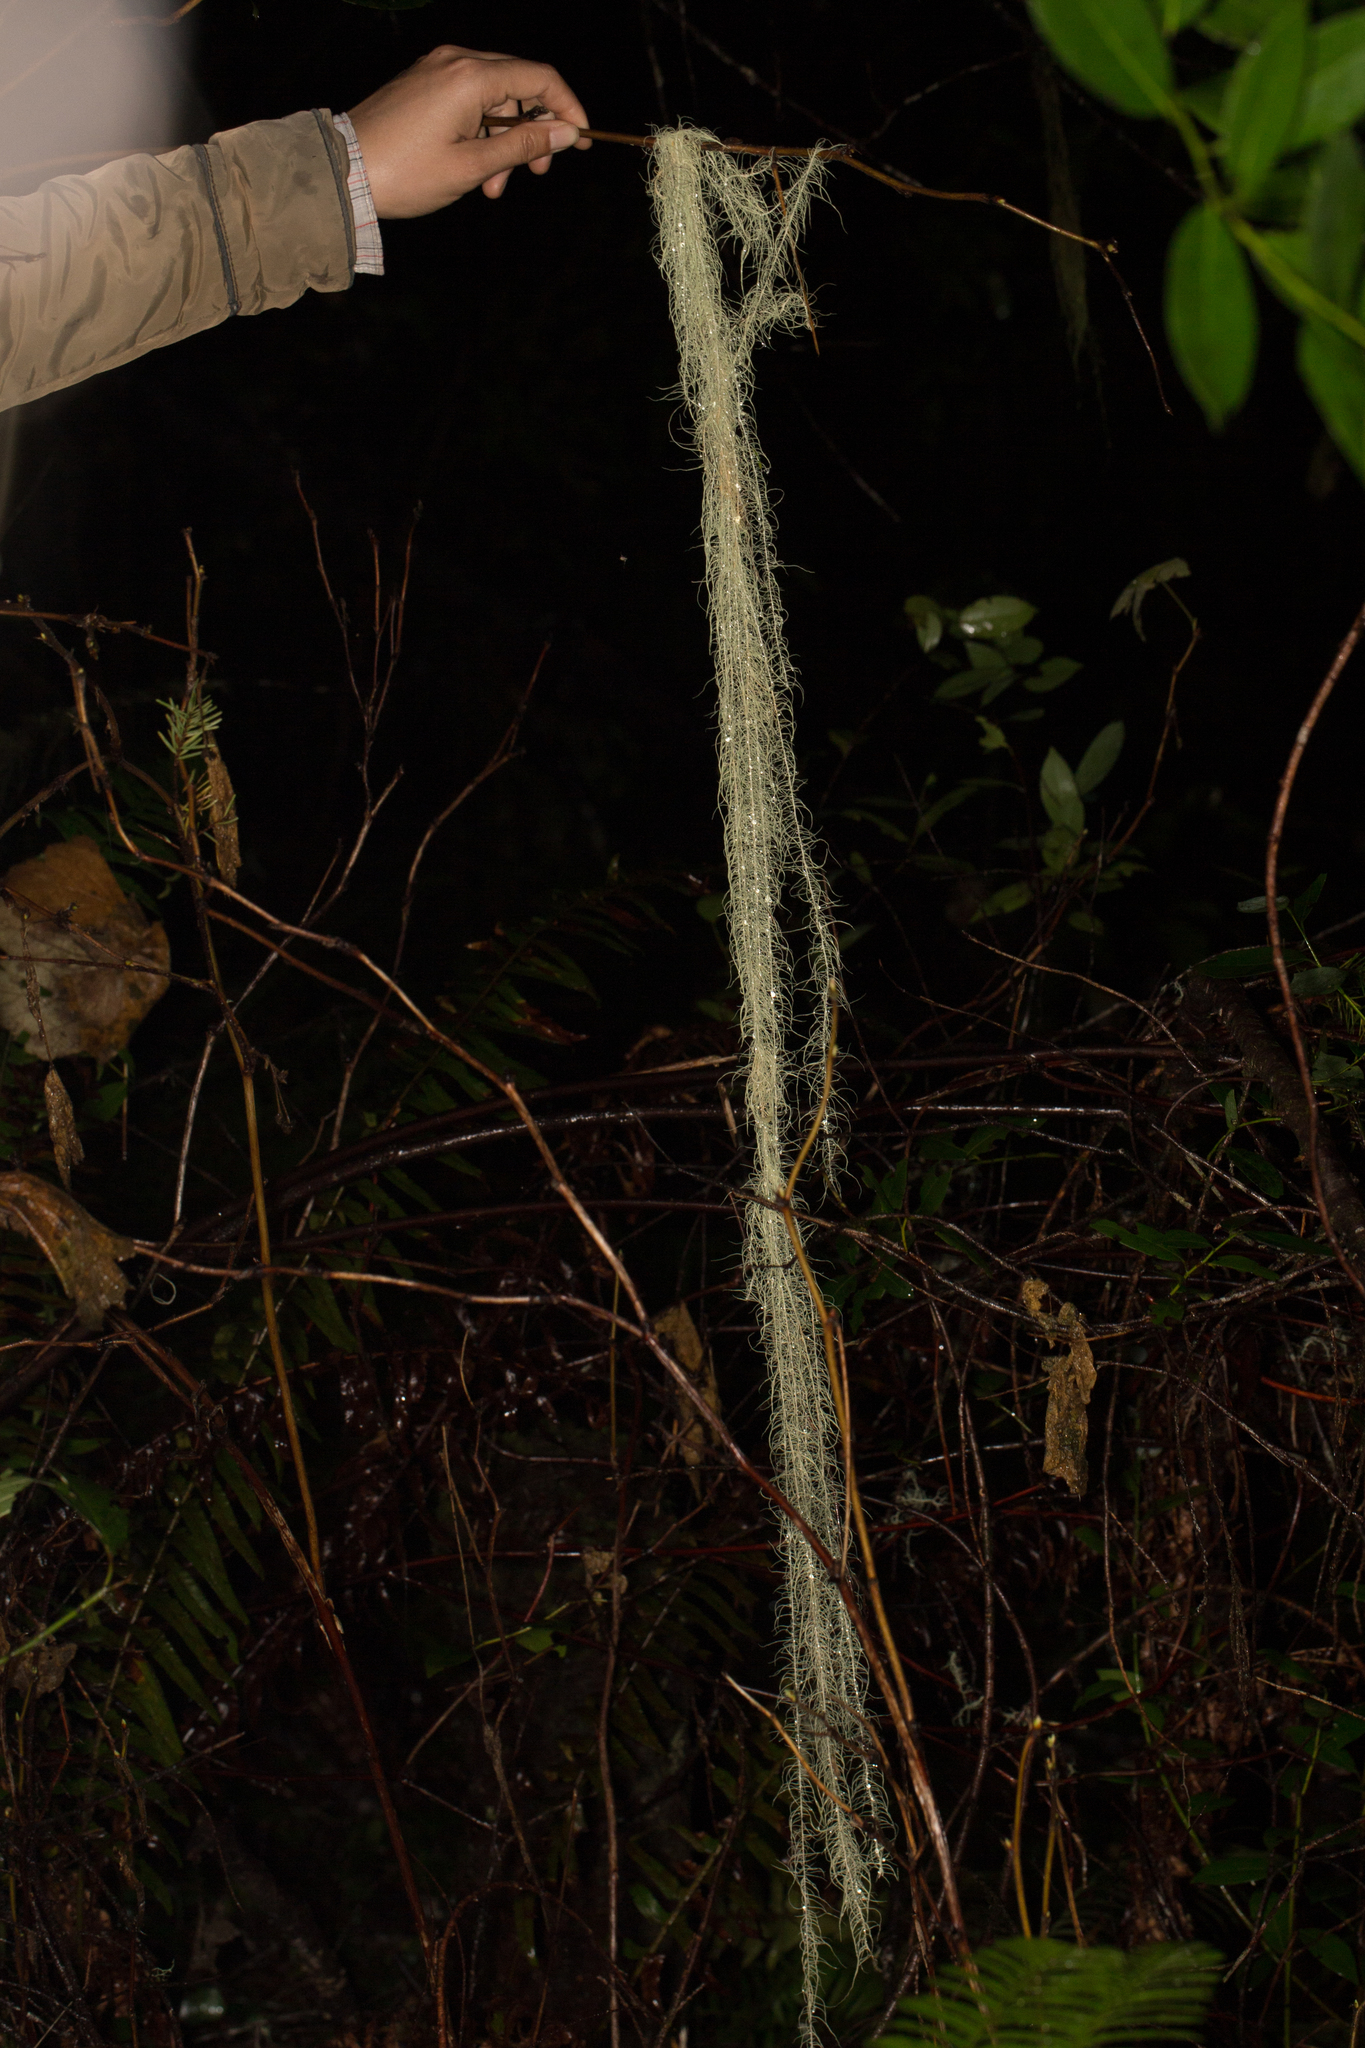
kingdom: Fungi
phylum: Ascomycota
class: Lecanoromycetes
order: Lecanorales
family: Parmeliaceae
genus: Dolichousnea
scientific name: Dolichousnea longissima
